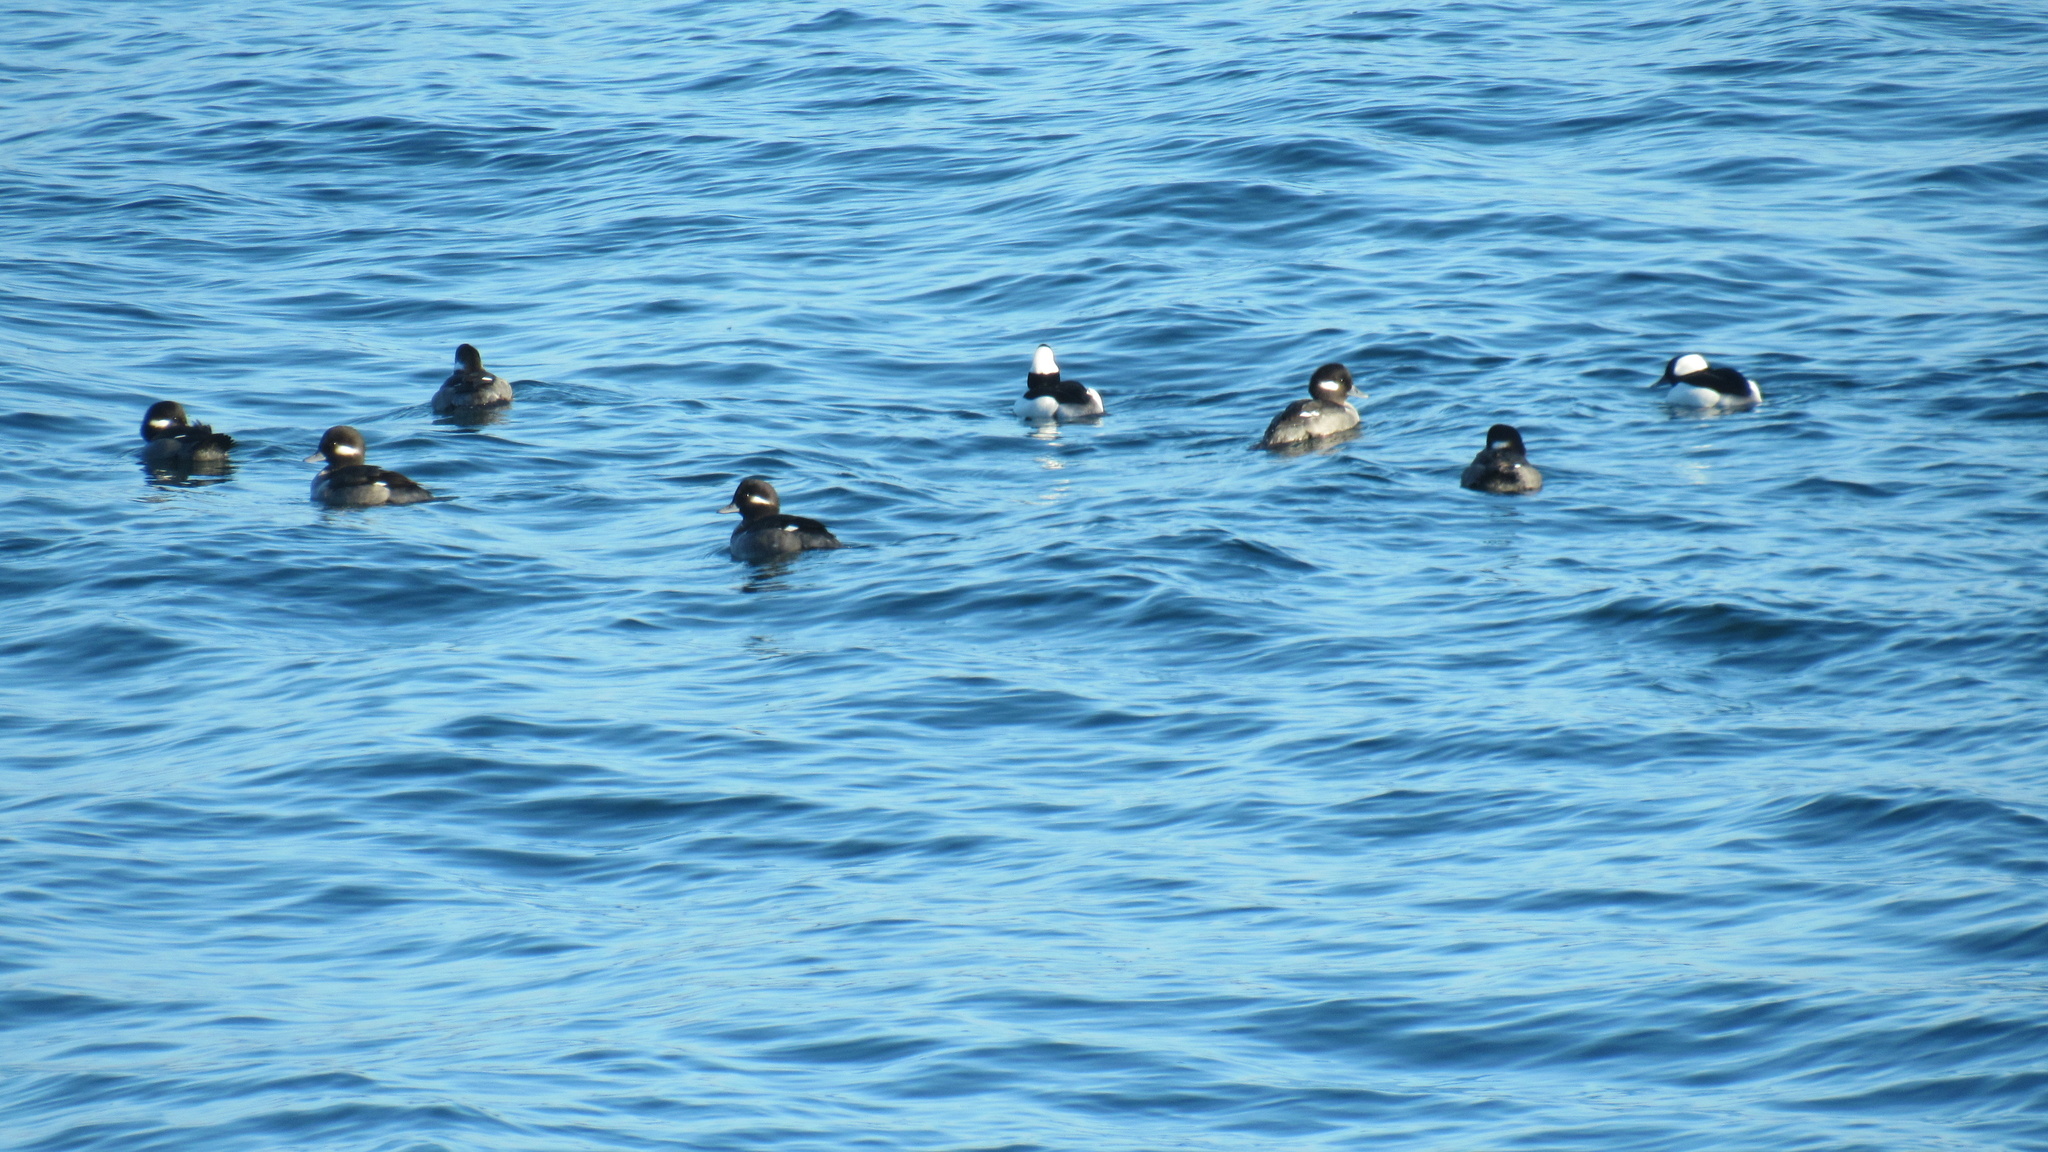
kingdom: Animalia
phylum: Chordata
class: Aves
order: Anseriformes
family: Anatidae
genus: Bucephala
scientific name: Bucephala albeola
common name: Bufflehead
